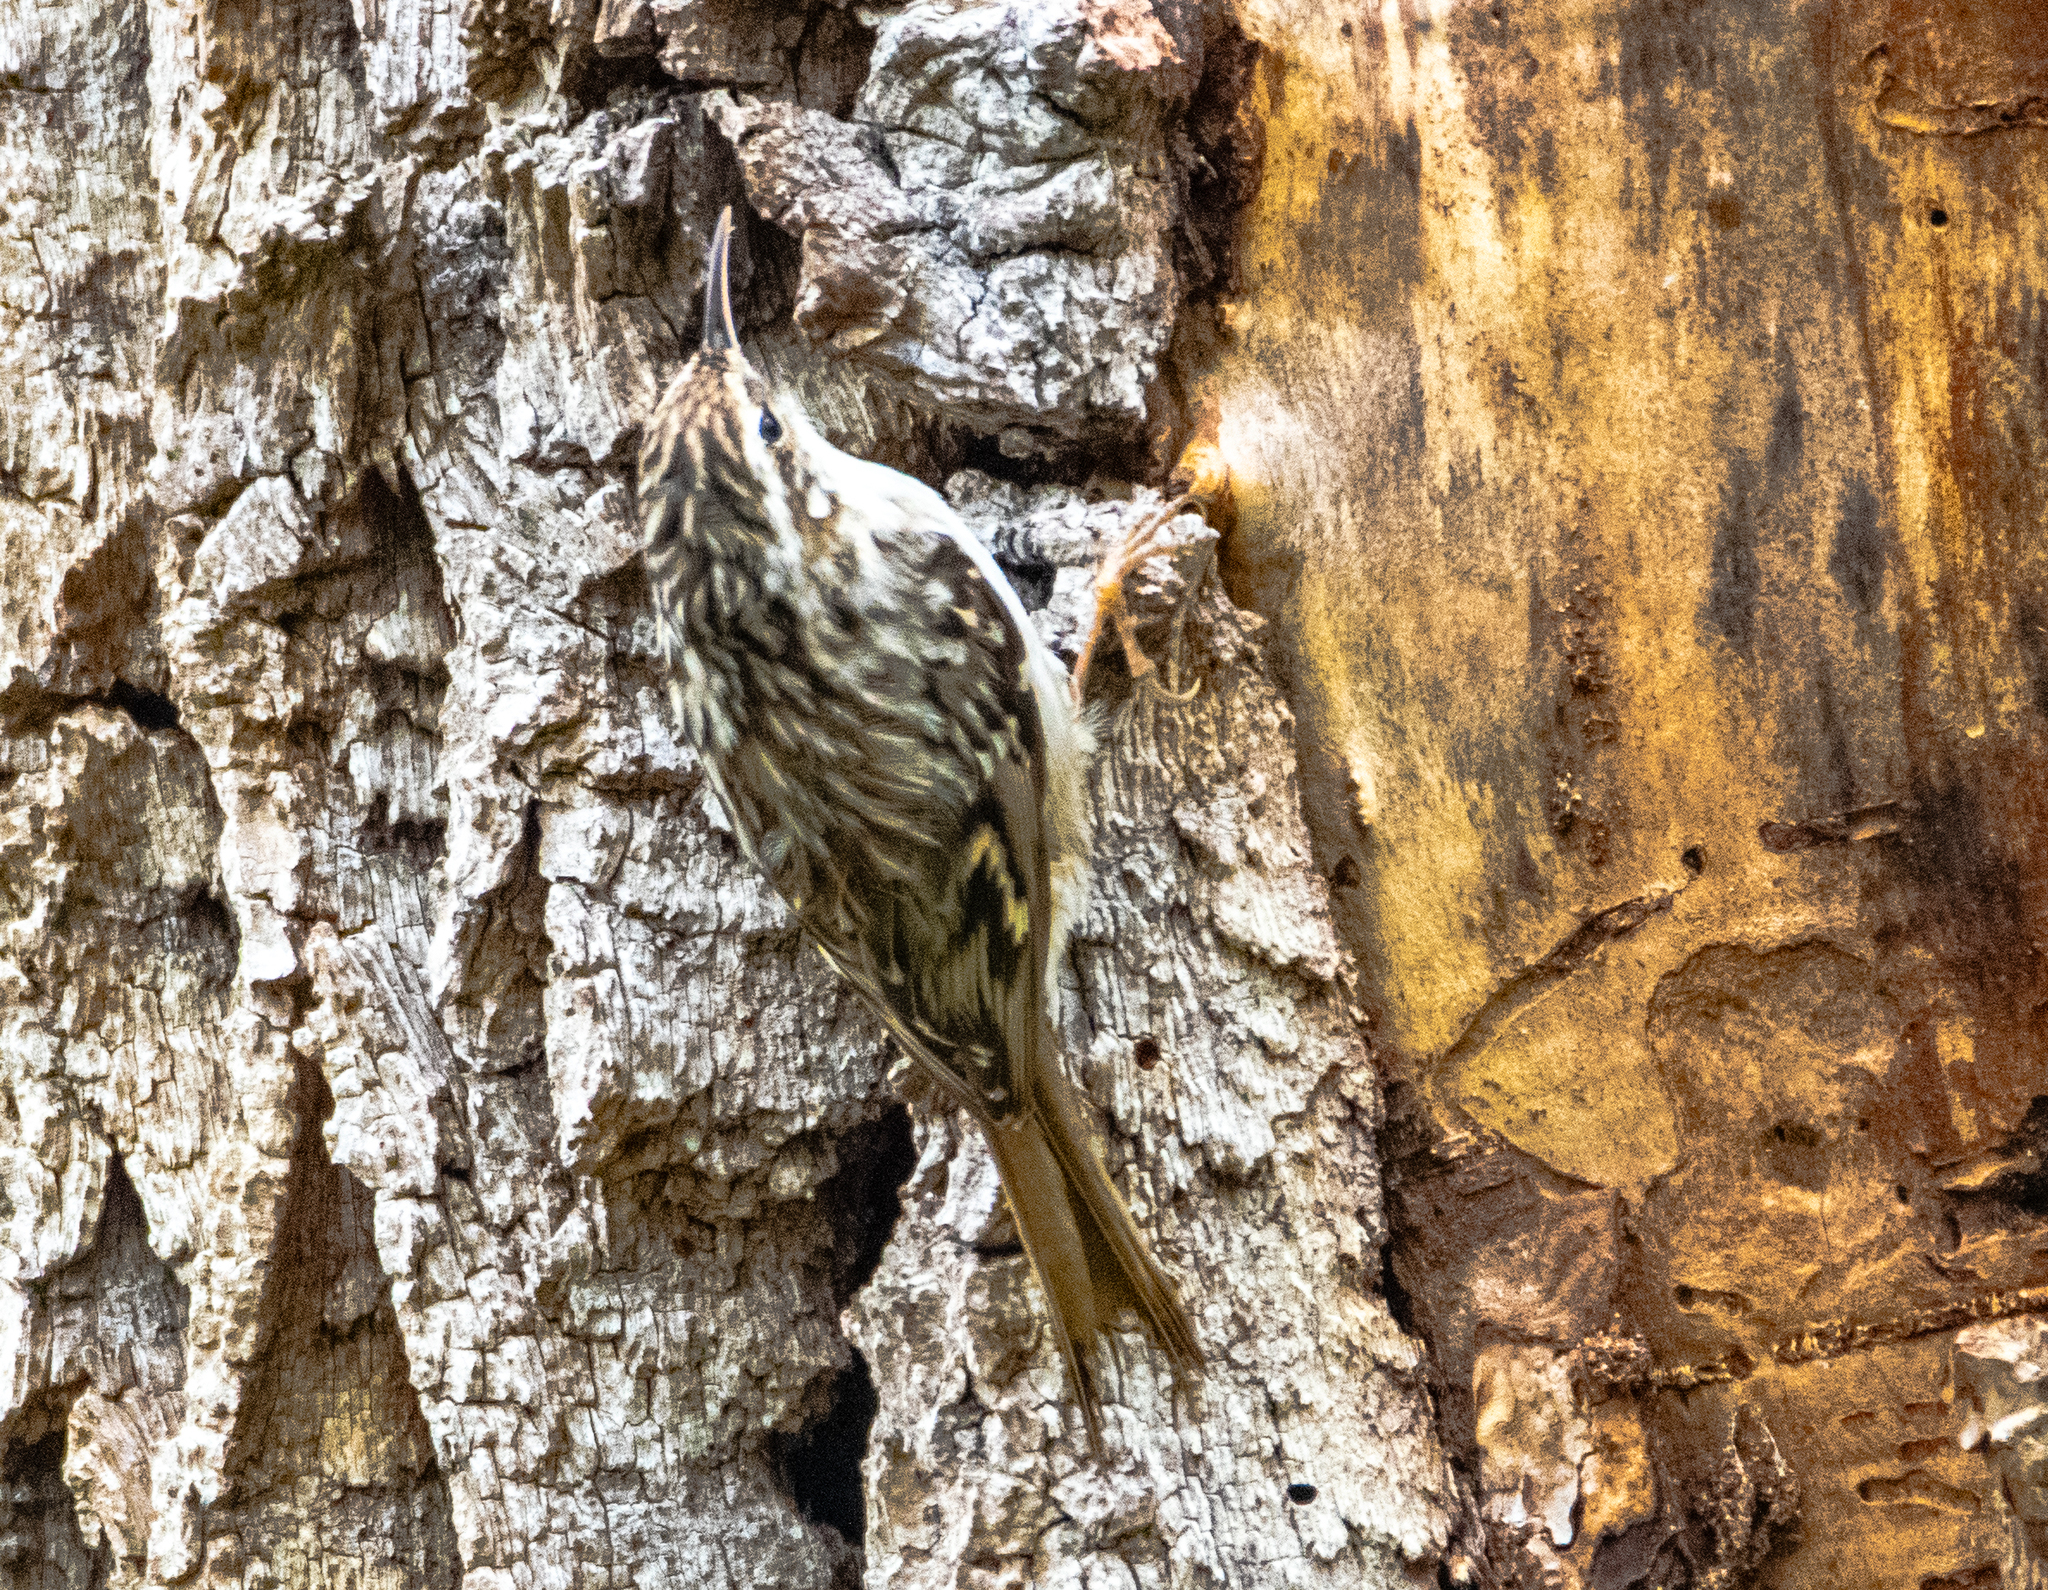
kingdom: Animalia
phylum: Chordata
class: Aves
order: Passeriformes
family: Certhiidae
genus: Certhia
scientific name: Certhia brachydactyla
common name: Short-toed treecreeper
